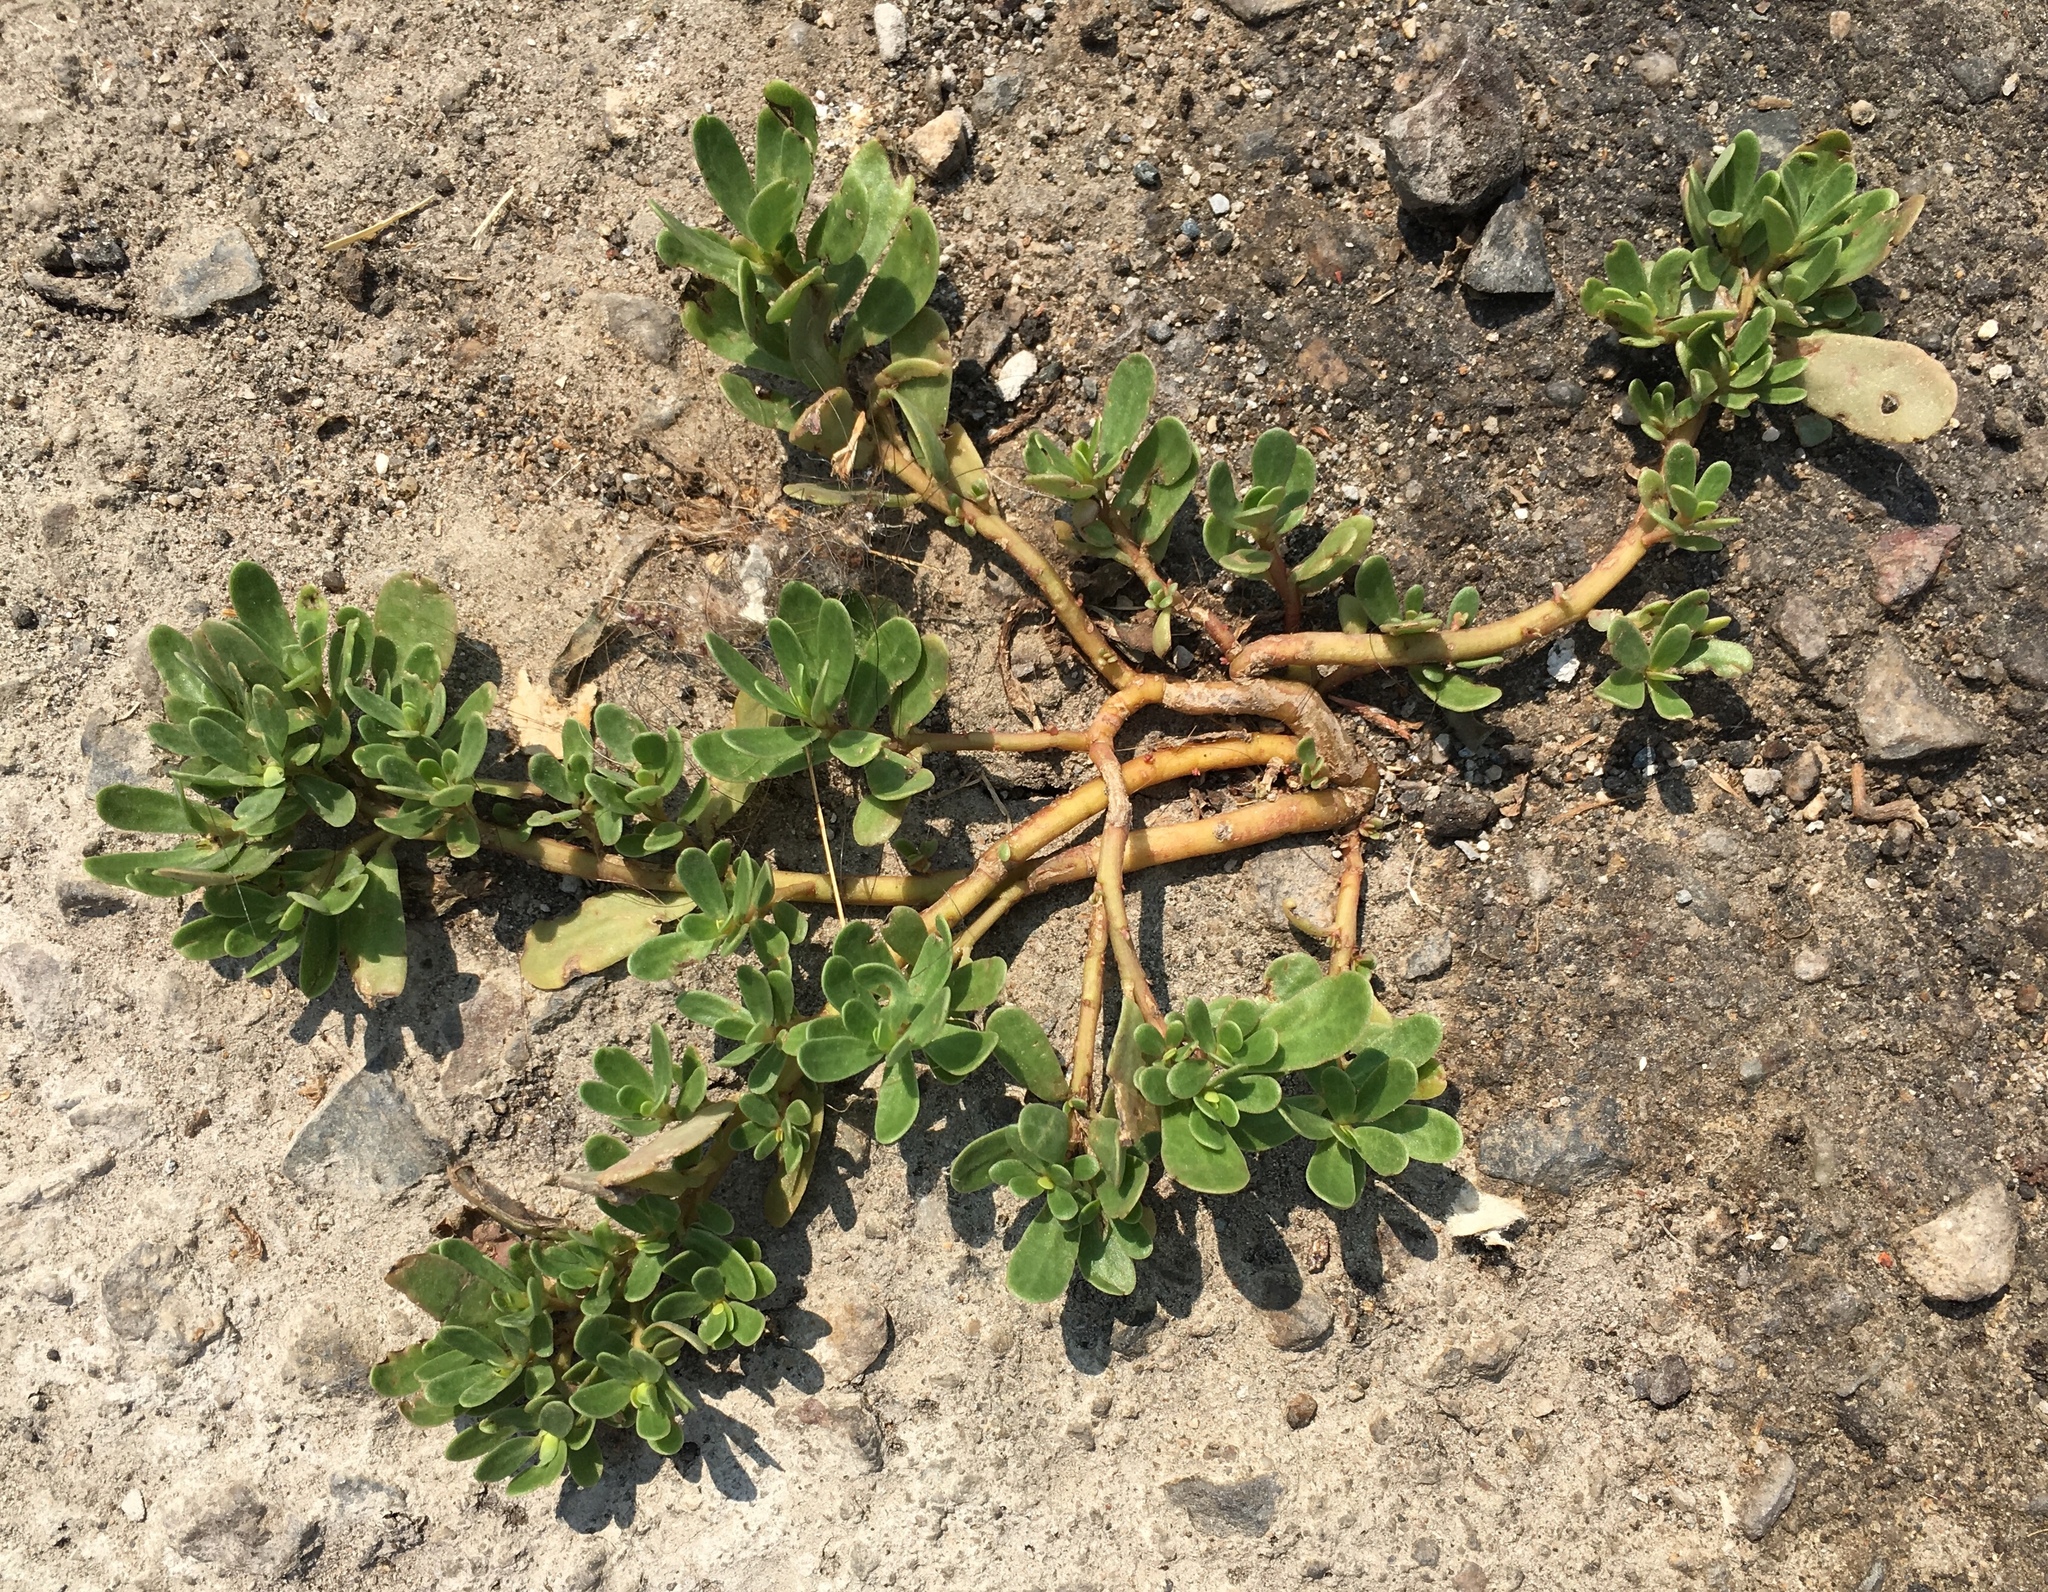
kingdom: Plantae
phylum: Tracheophyta
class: Magnoliopsida
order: Caryophyllales
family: Portulacaceae
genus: Portulaca
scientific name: Portulaca oleracea
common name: Common purslane
